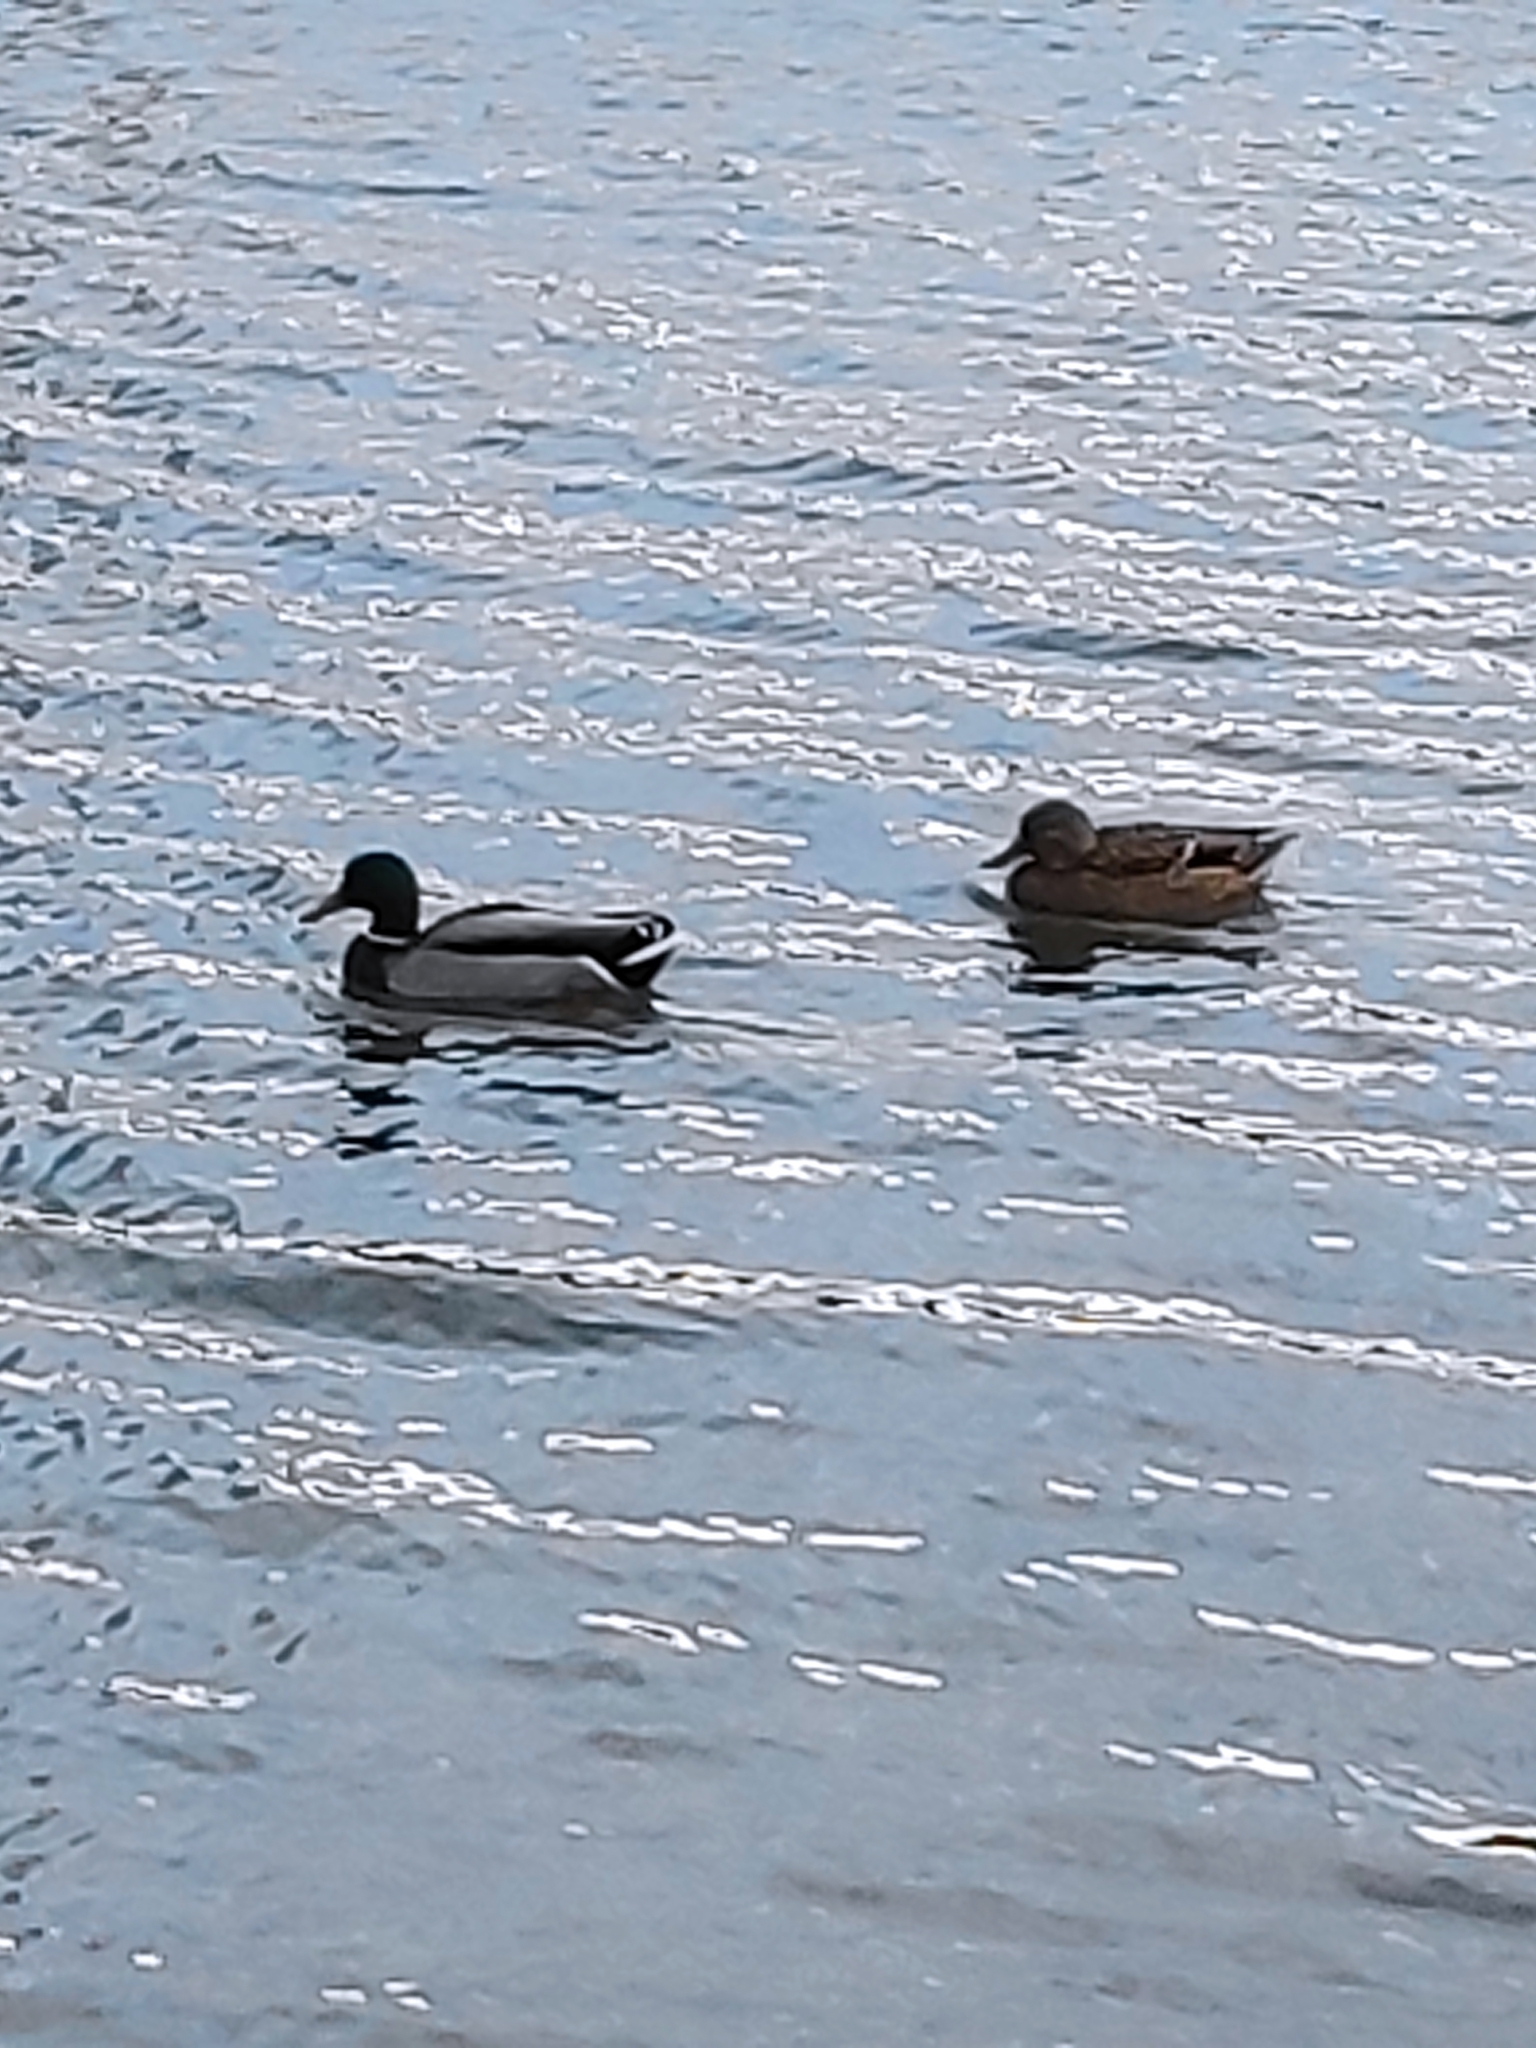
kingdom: Animalia
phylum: Chordata
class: Aves
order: Anseriformes
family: Anatidae
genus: Anas
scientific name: Anas platyrhynchos
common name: Mallard
